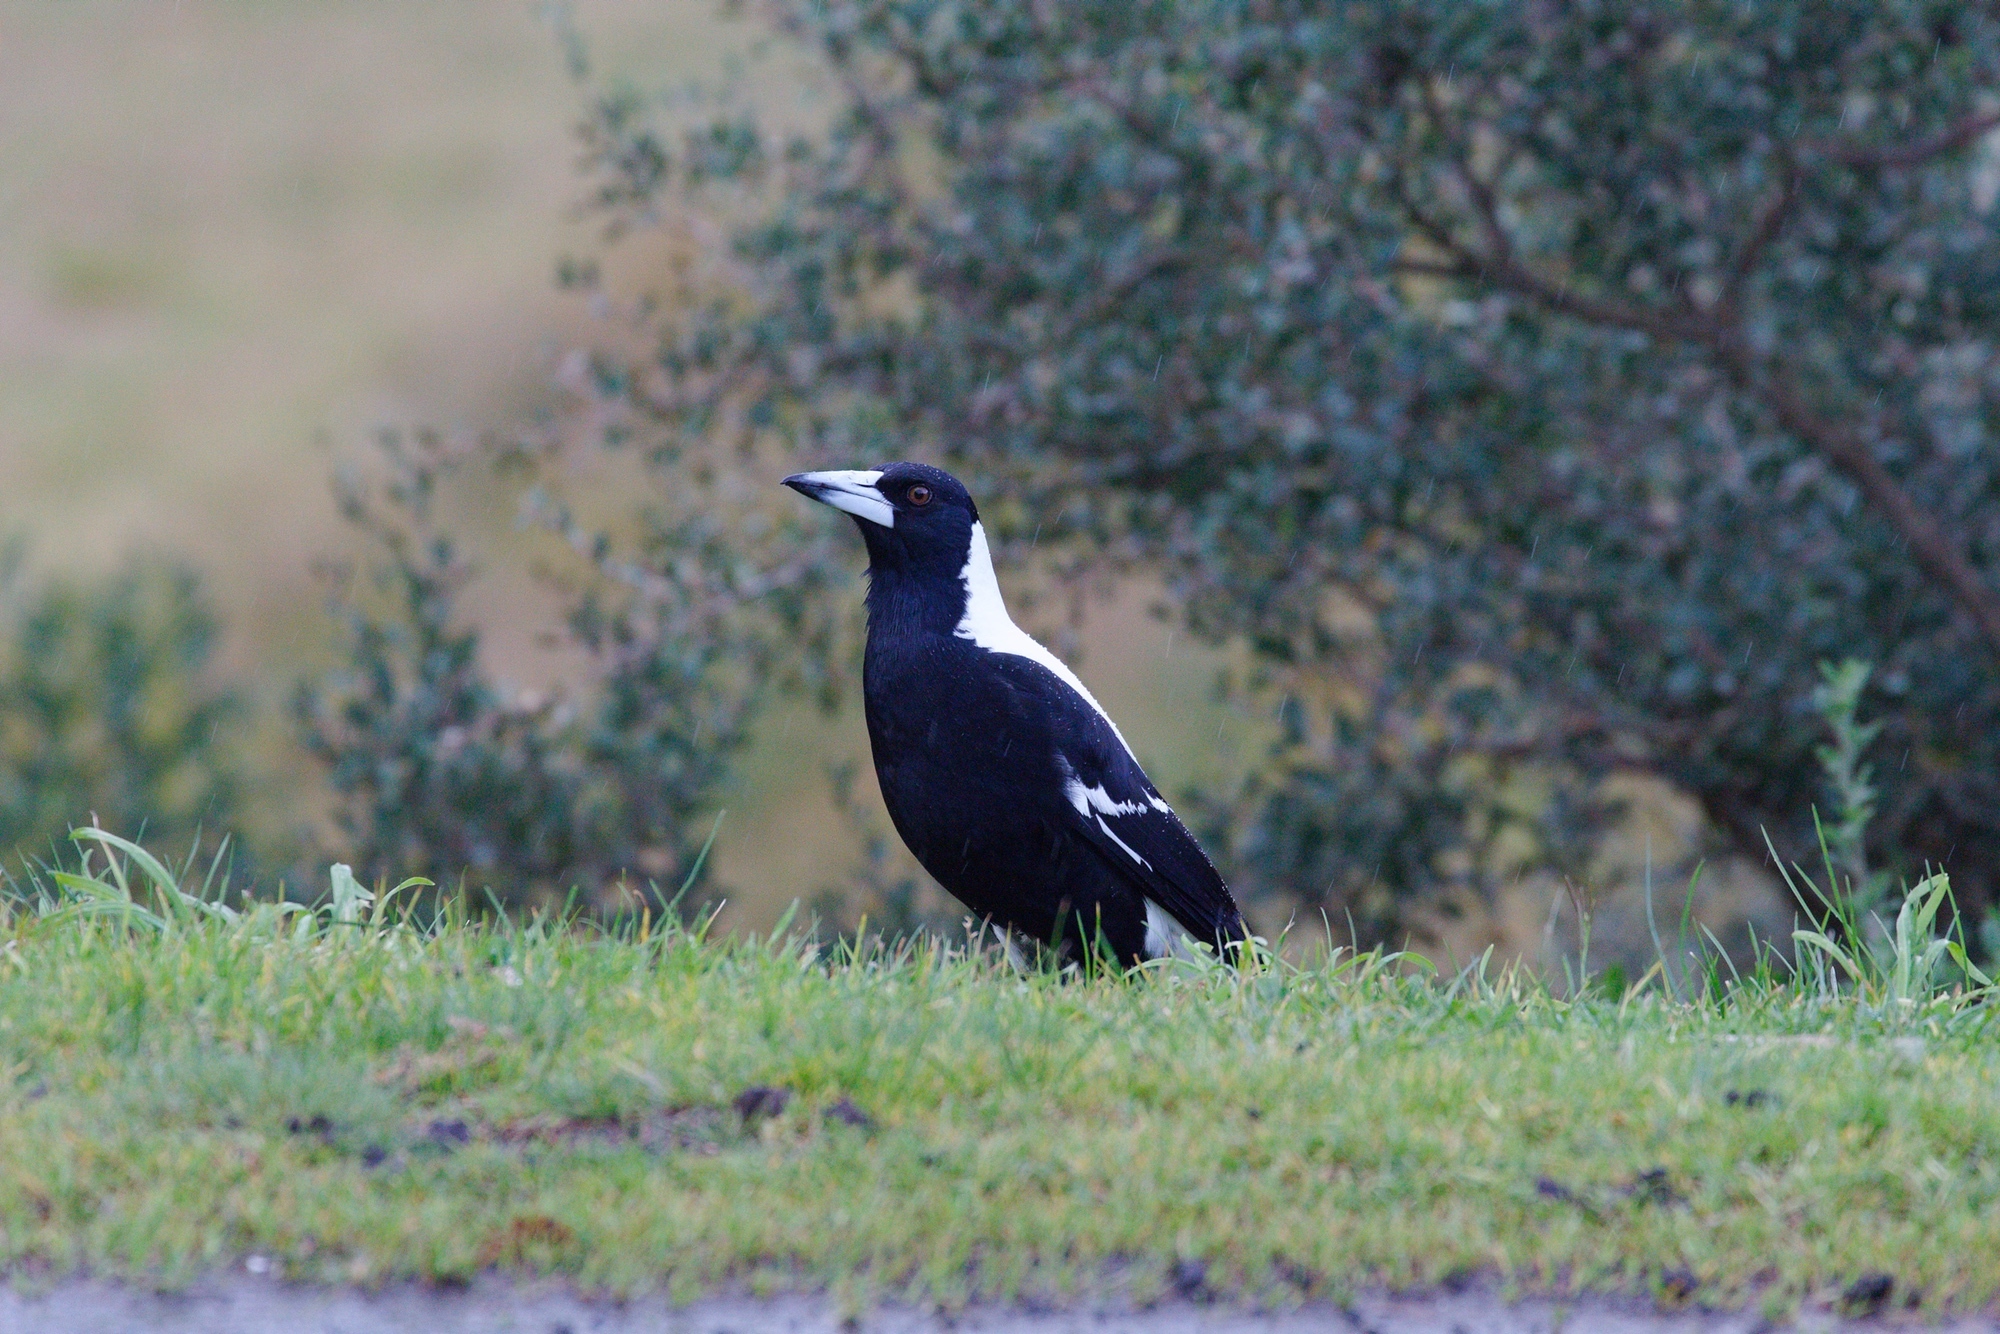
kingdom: Animalia
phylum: Chordata
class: Aves
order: Passeriformes
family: Cracticidae
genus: Gymnorhina
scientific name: Gymnorhina tibicen
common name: Australian magpie
